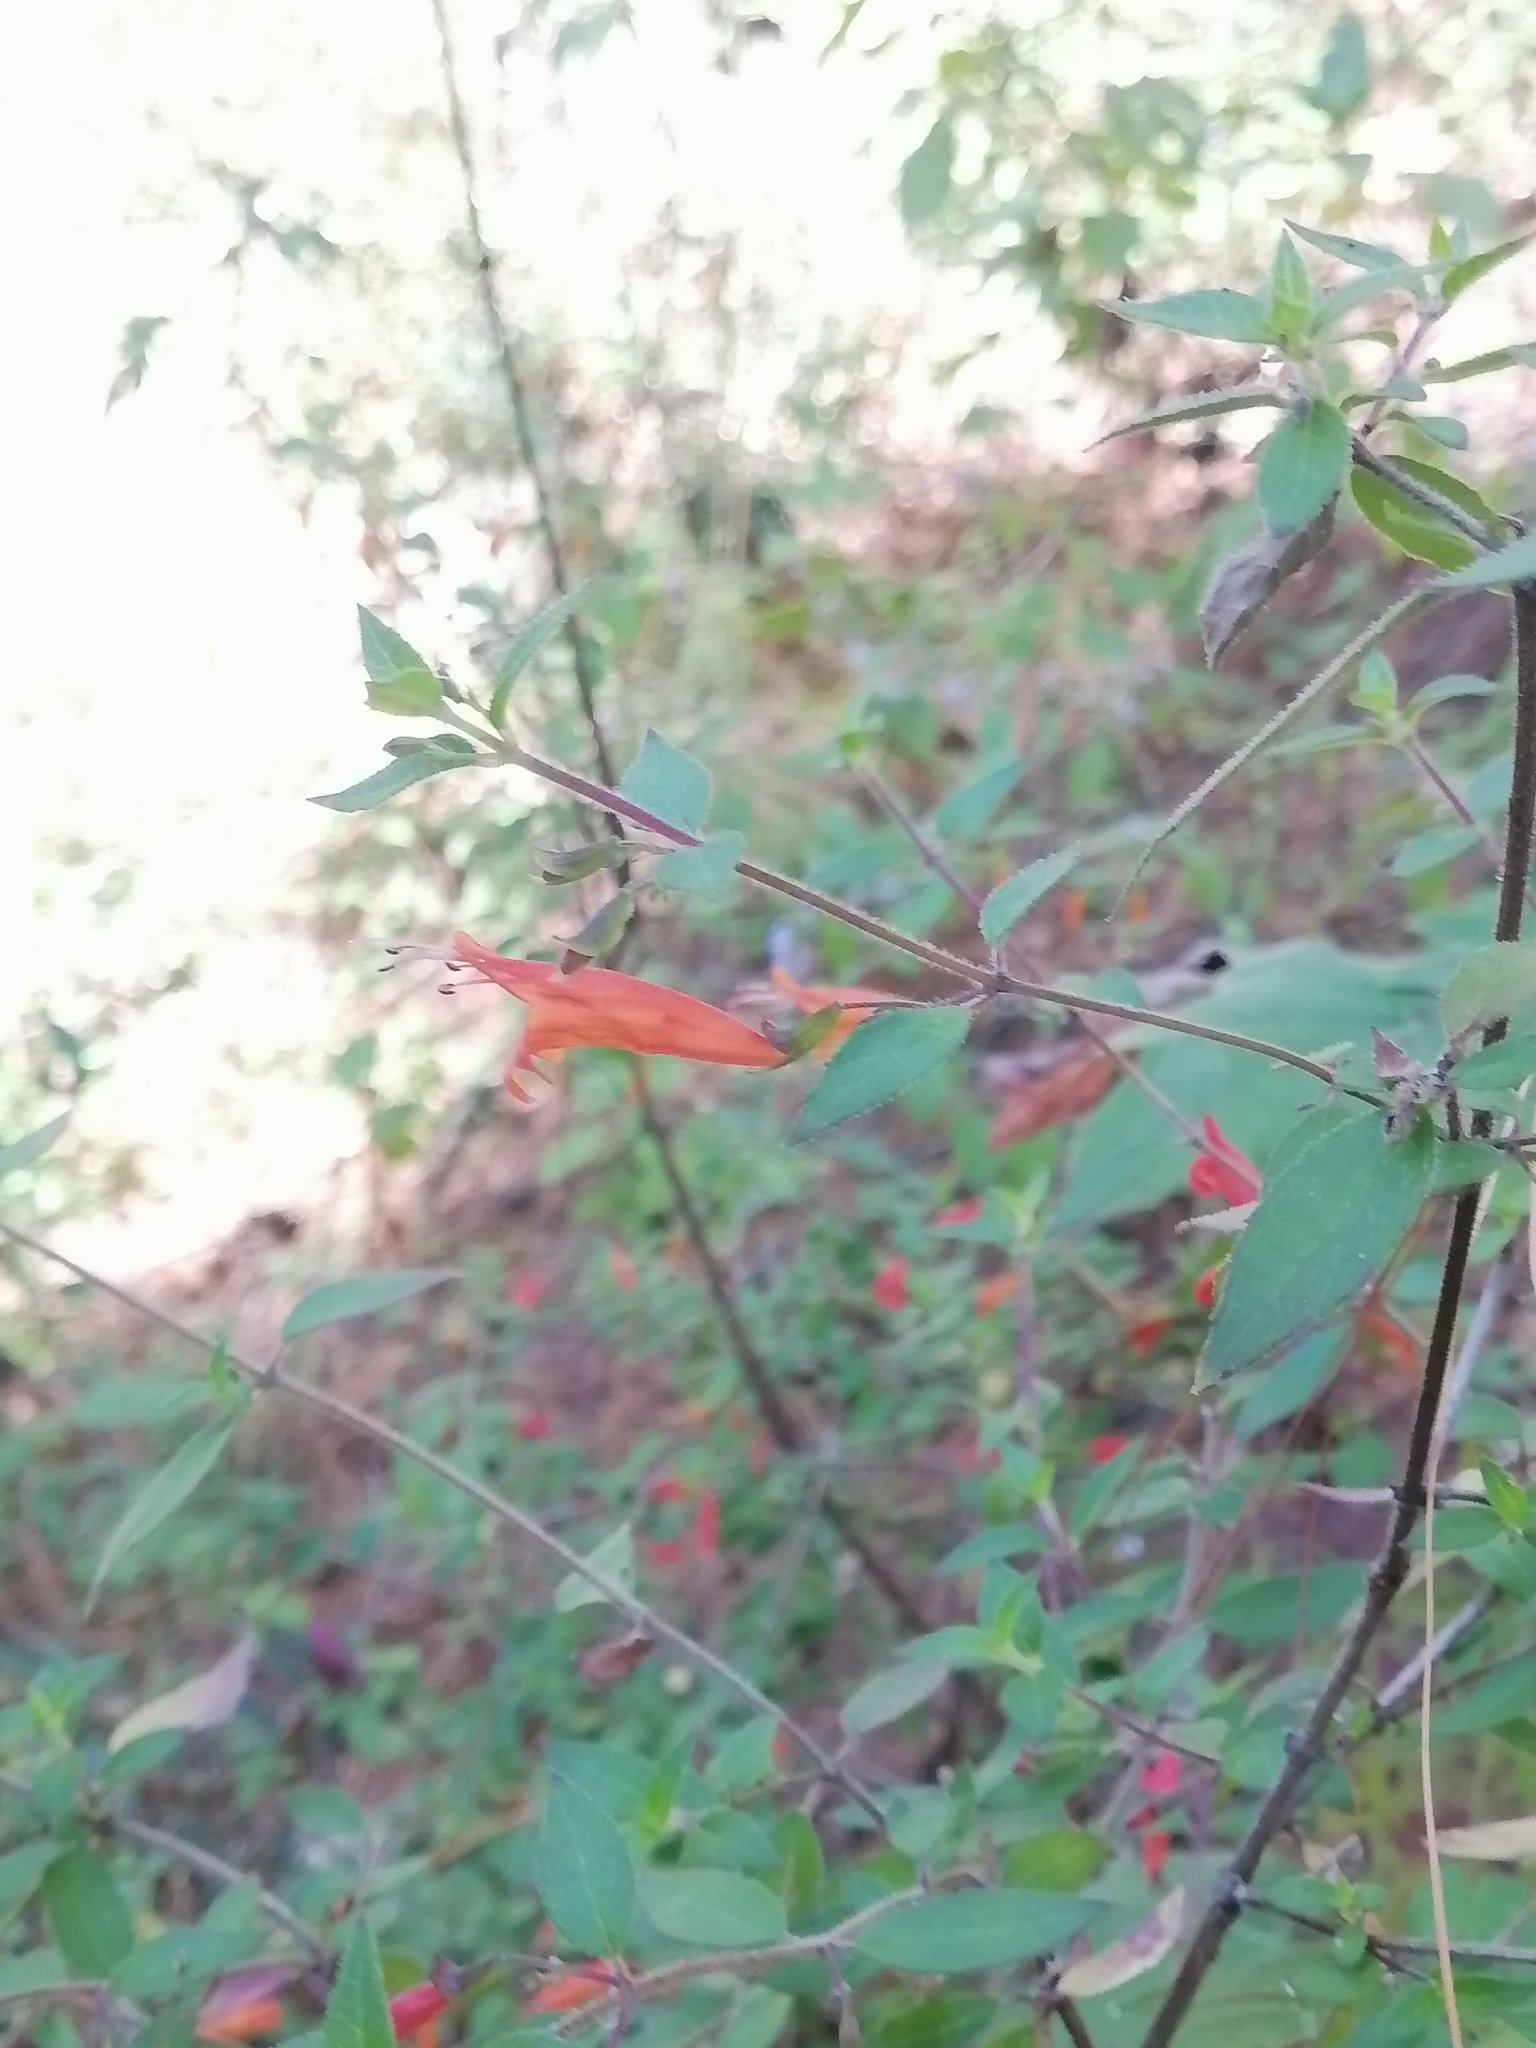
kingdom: Plantae
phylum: Tracheophyta
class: Magnoliopsida
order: Lamiales
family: Lamiaceae
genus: Clinopodium
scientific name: Clinopodium macrostemum
